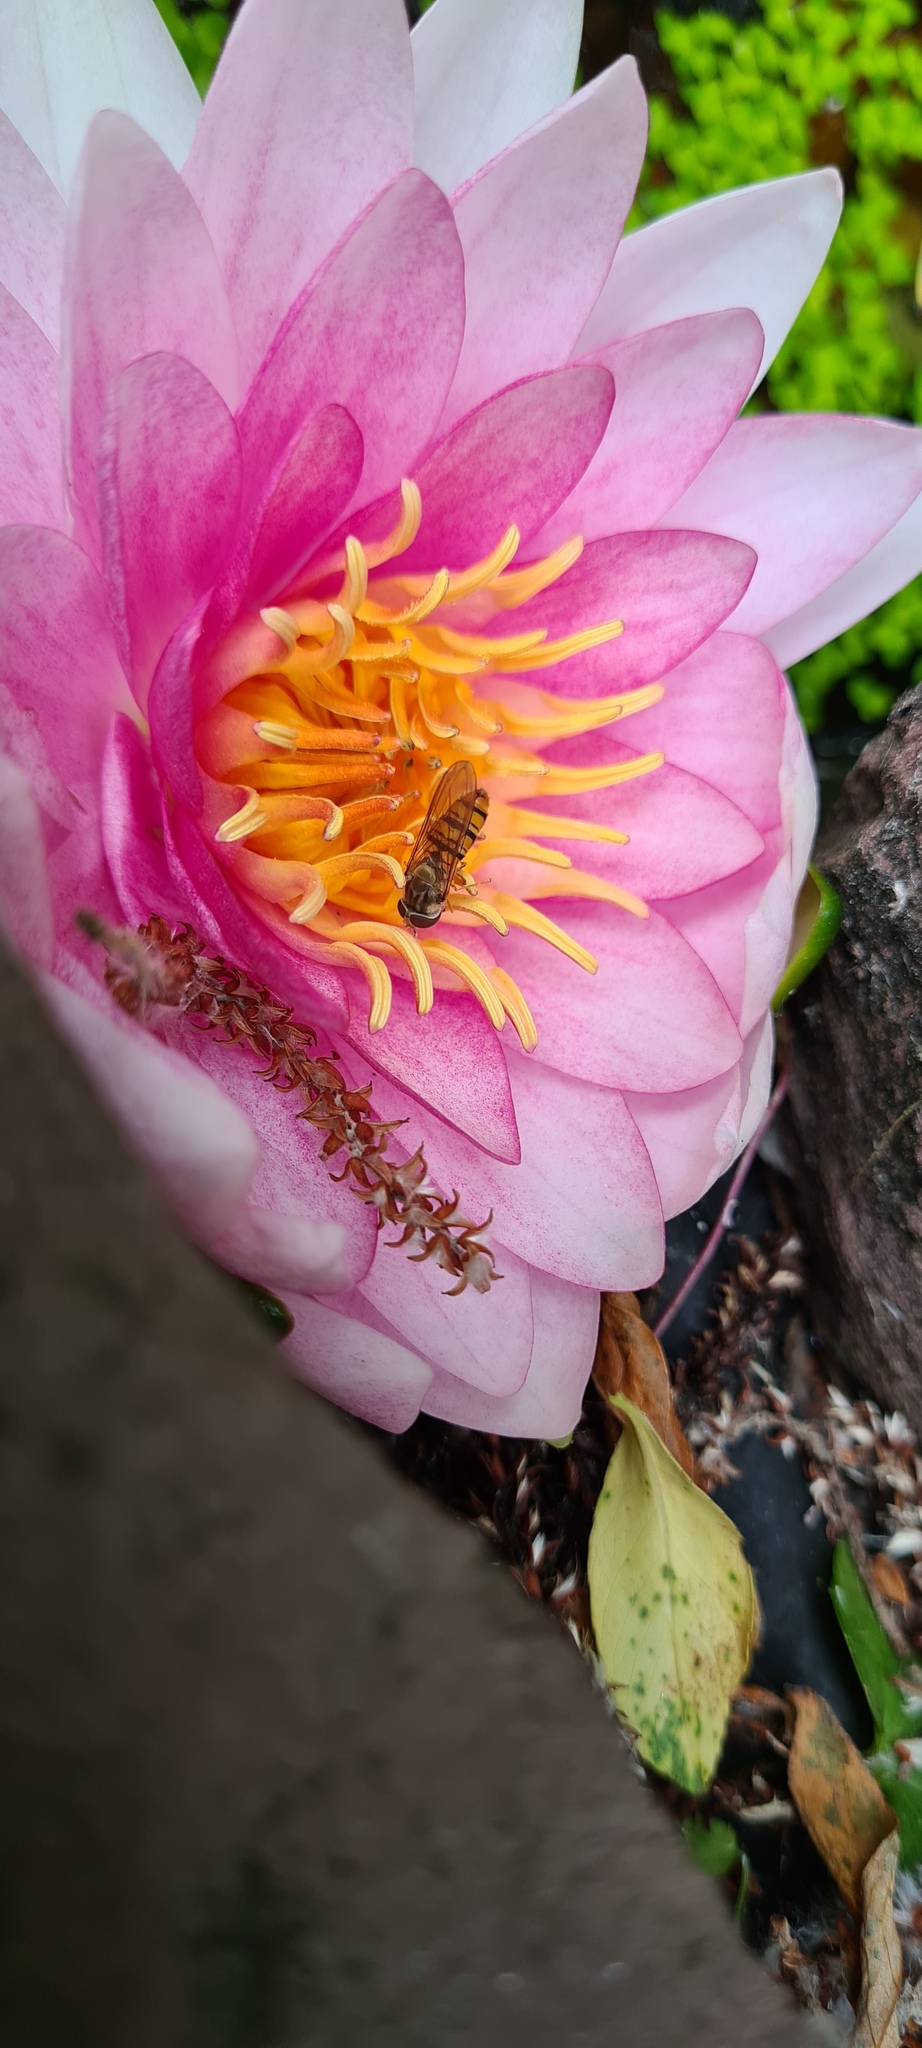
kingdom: Animalia
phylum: Arthropoda
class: Insecta
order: Diptera
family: Syrphidae
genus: Episyrphus
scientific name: Episyrphus balteatus
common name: Marmalade hoverfly
